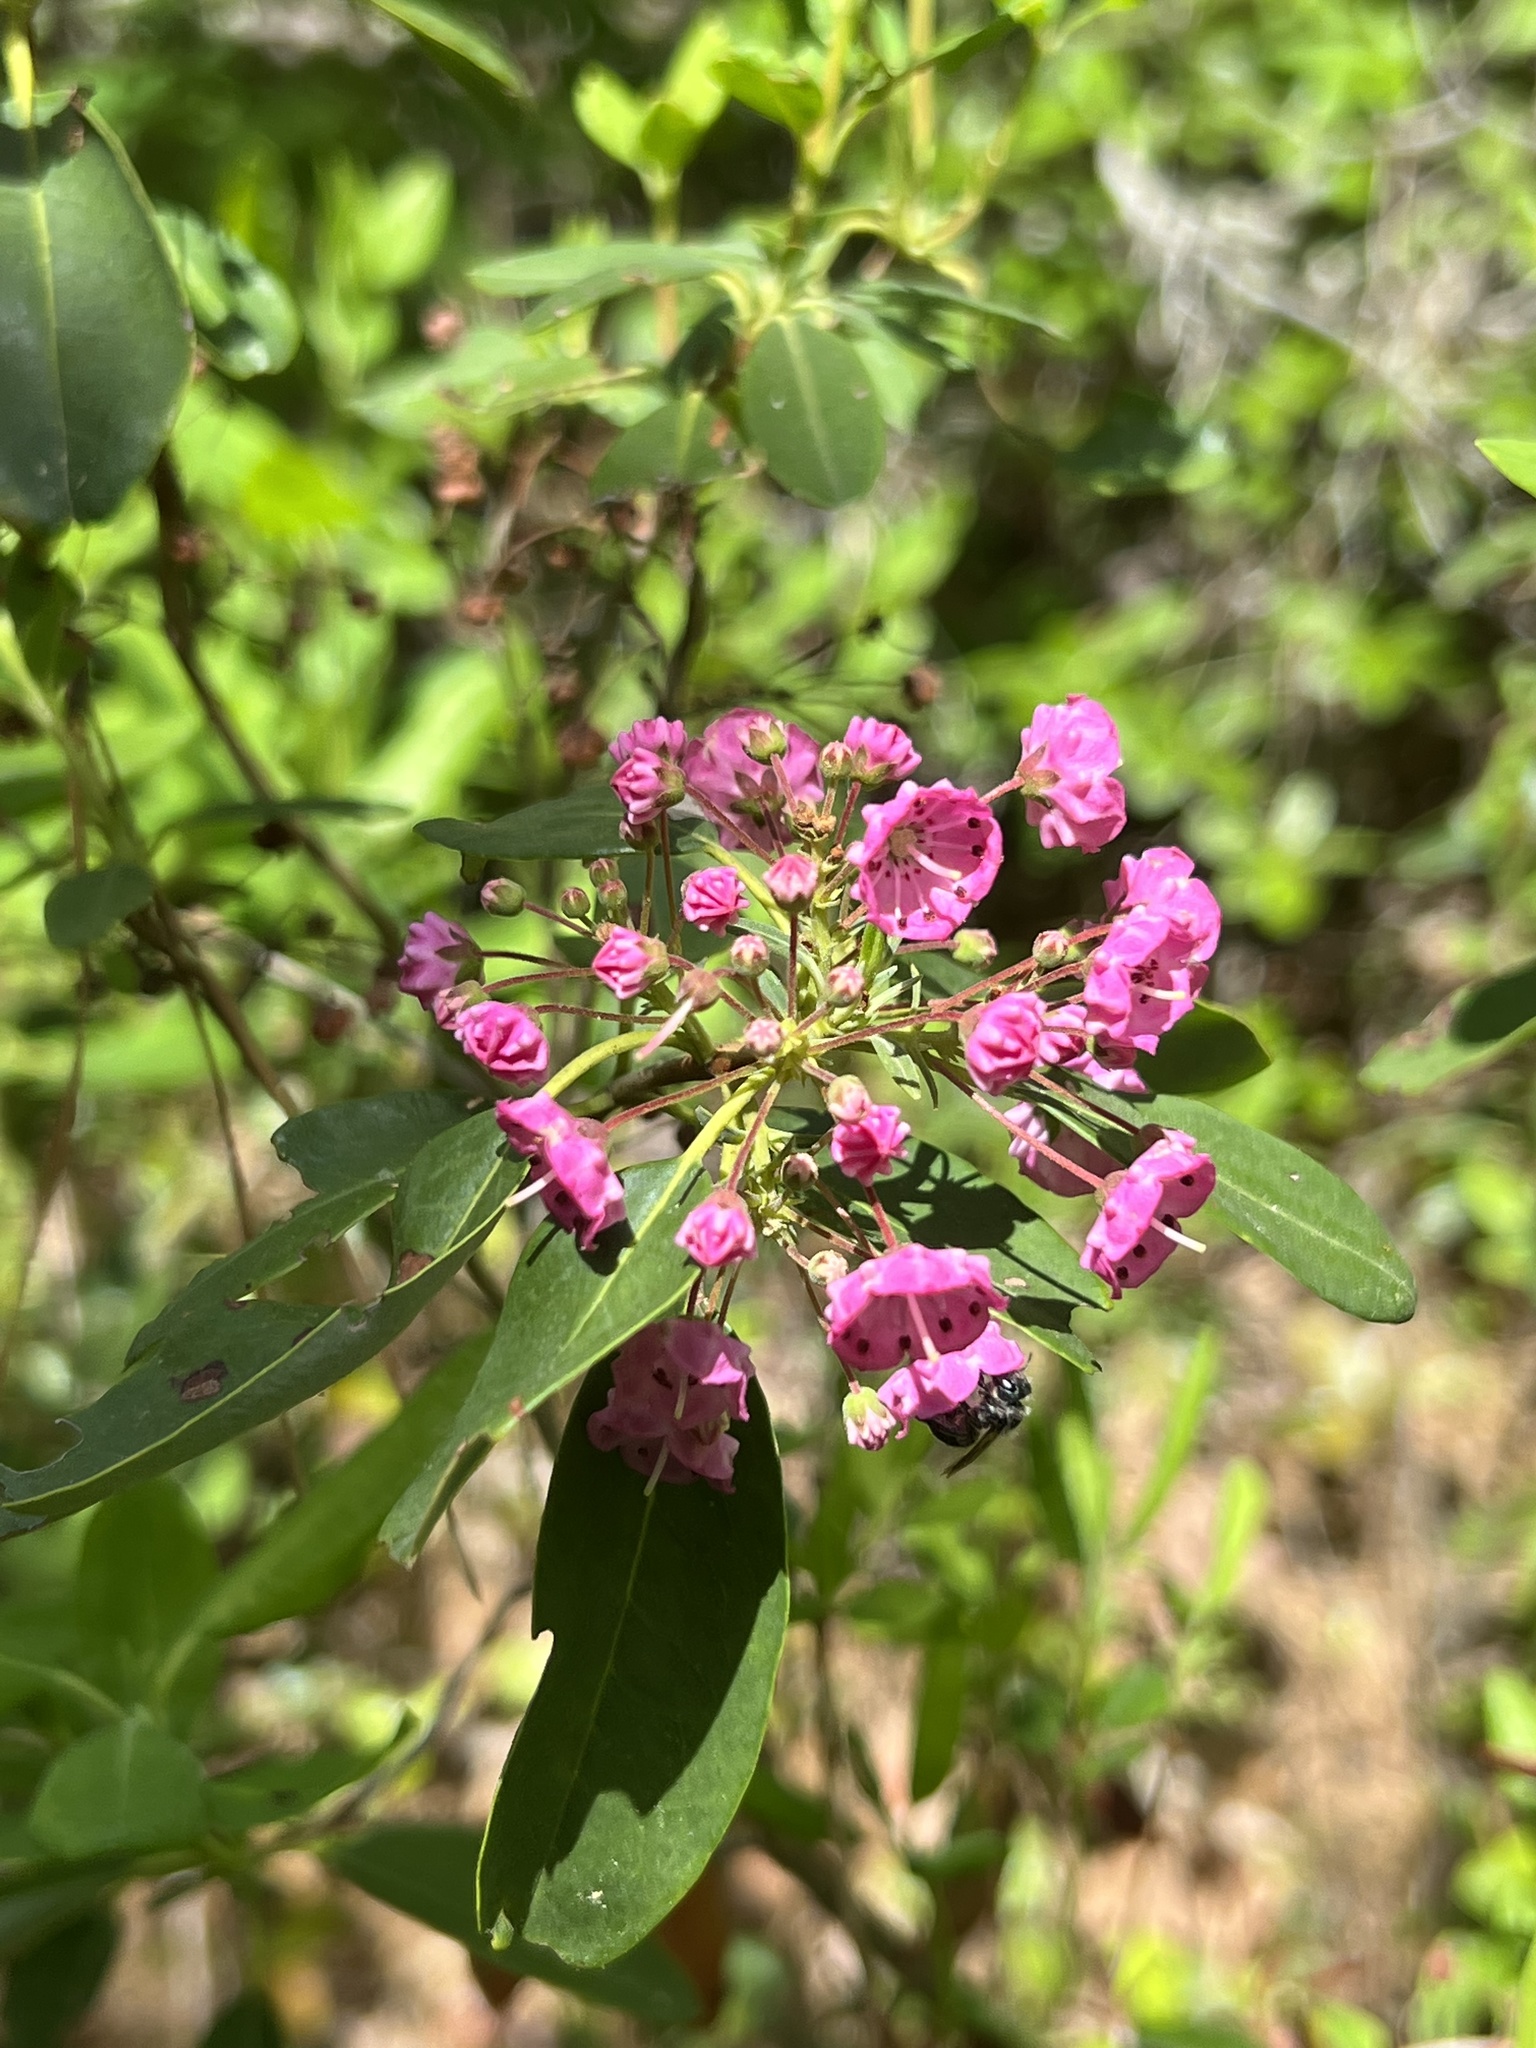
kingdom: Plantae
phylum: Tracheophyta
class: Magnoliopsida
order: Ericales
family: Ericaceae
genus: Kalmia
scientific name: Kalmia angustifolia
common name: Sheep-laurel
